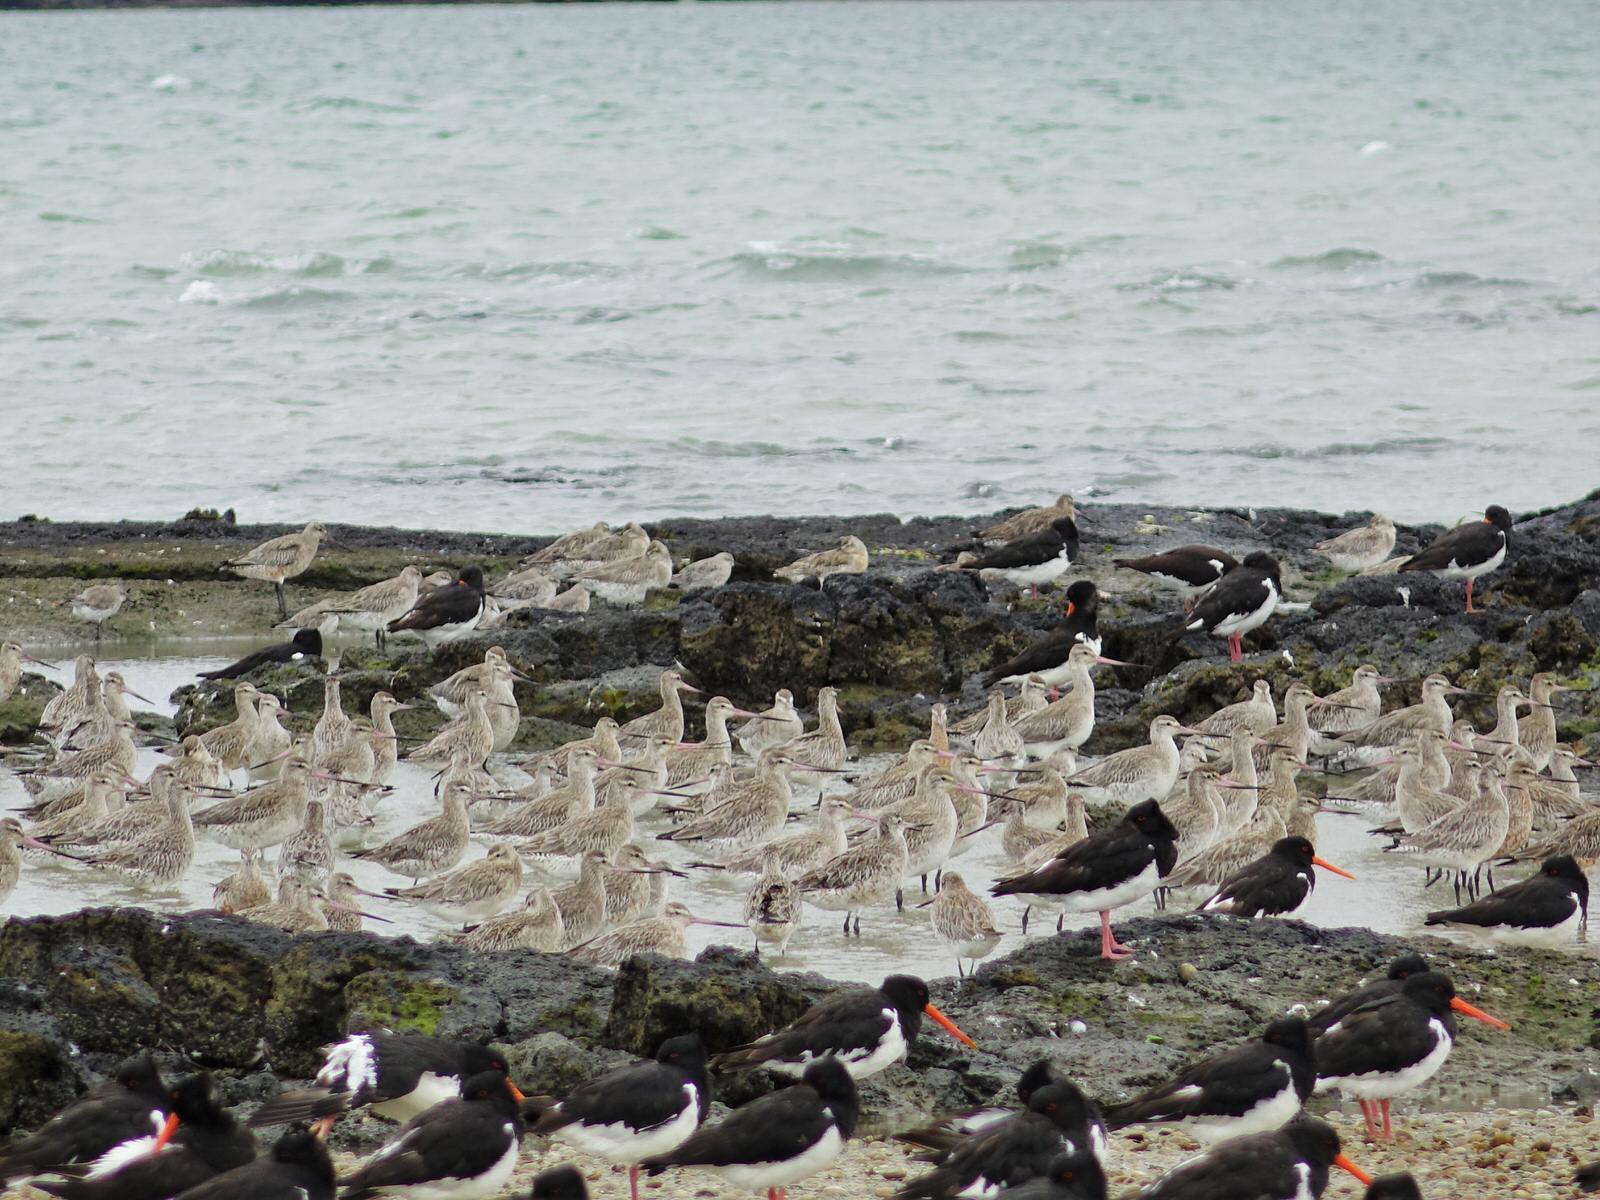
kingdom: Animalia
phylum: Chordata
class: Aves
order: Charadriiformes
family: Scolopacidae
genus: Limosa
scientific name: Limosa lapponica
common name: Bar-tailed godwit
